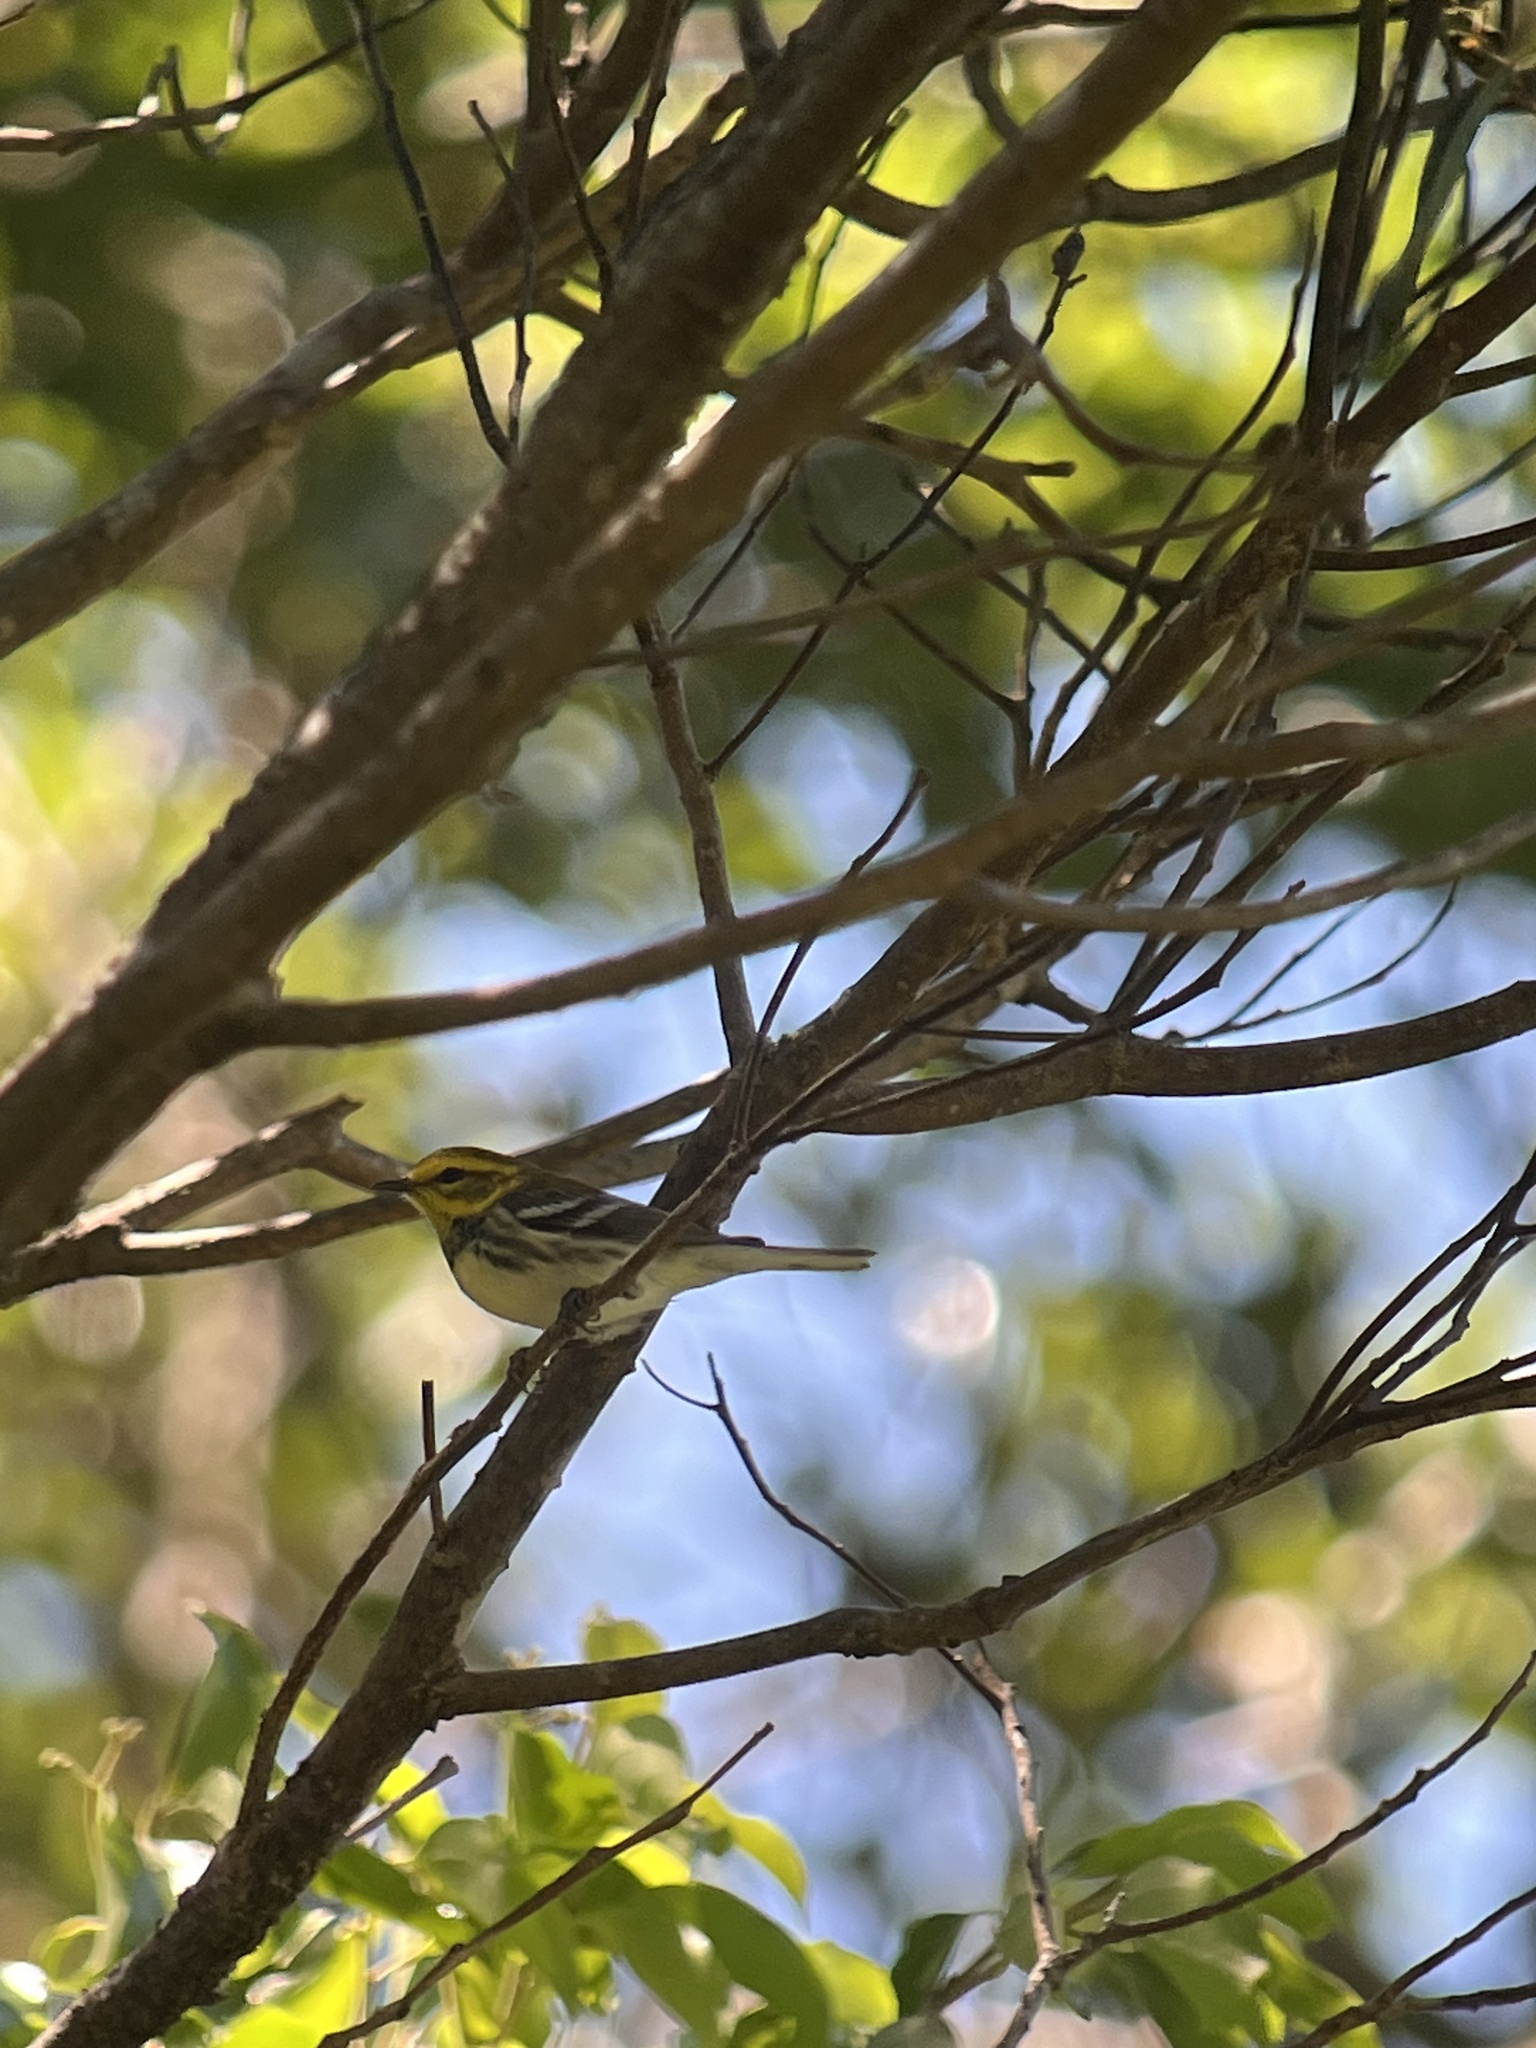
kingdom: Animalia
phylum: Chordata
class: Aves
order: Passeriformes
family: Parulidae
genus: Setophaga
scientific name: Setophaga virens
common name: Black-throated green warbler
